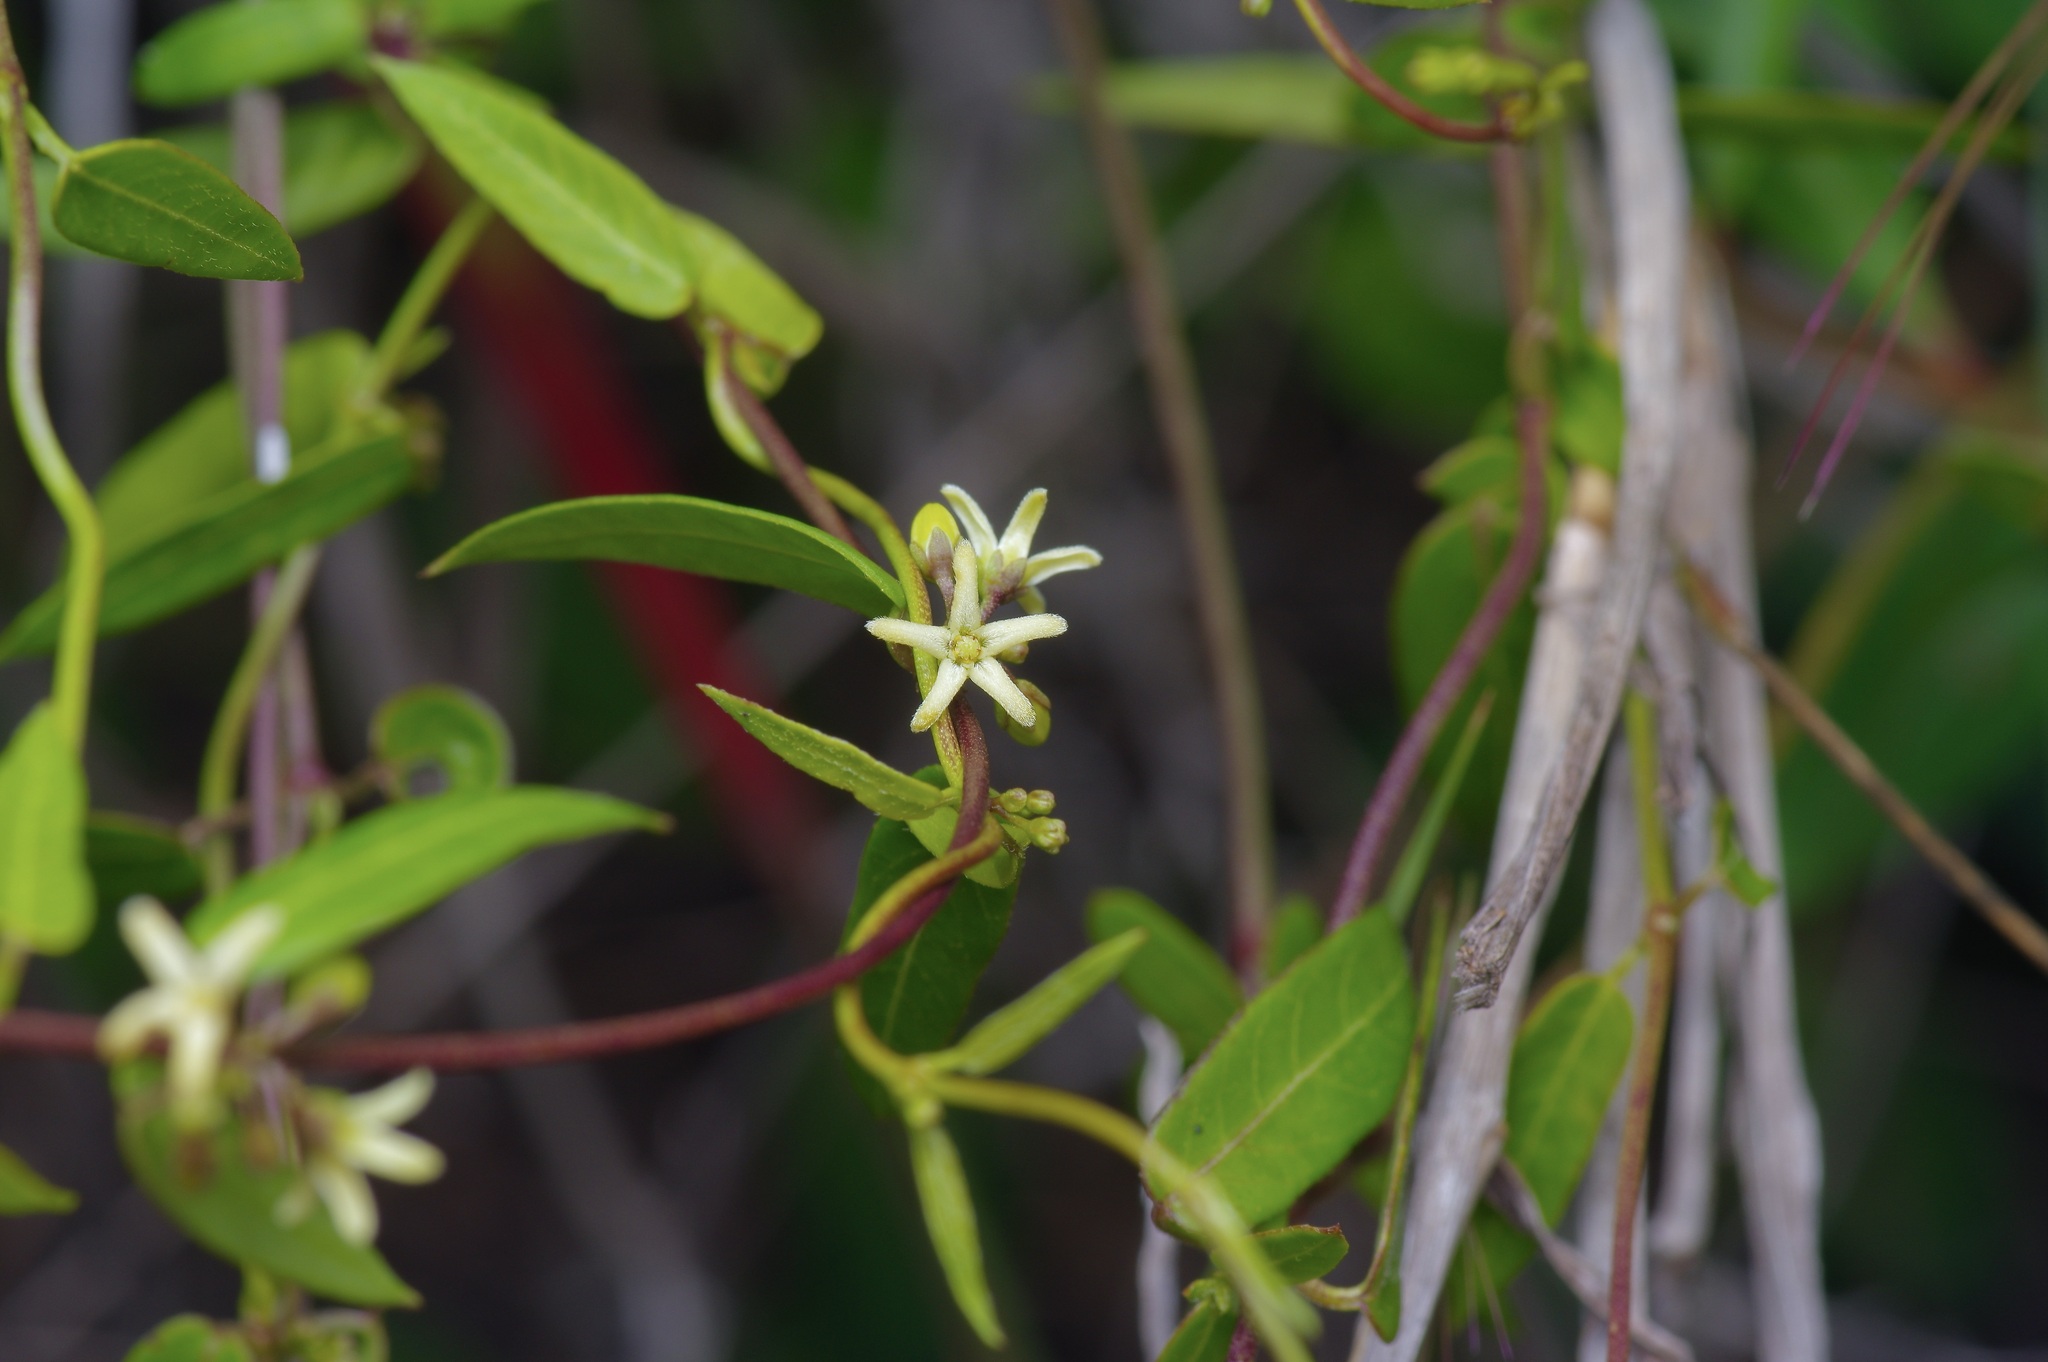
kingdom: Plantae
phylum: Tracheophyta
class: Magnoliopsida
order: Gentianales
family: Apocynaceae
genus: Metastelma
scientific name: Metastelma palmeri
